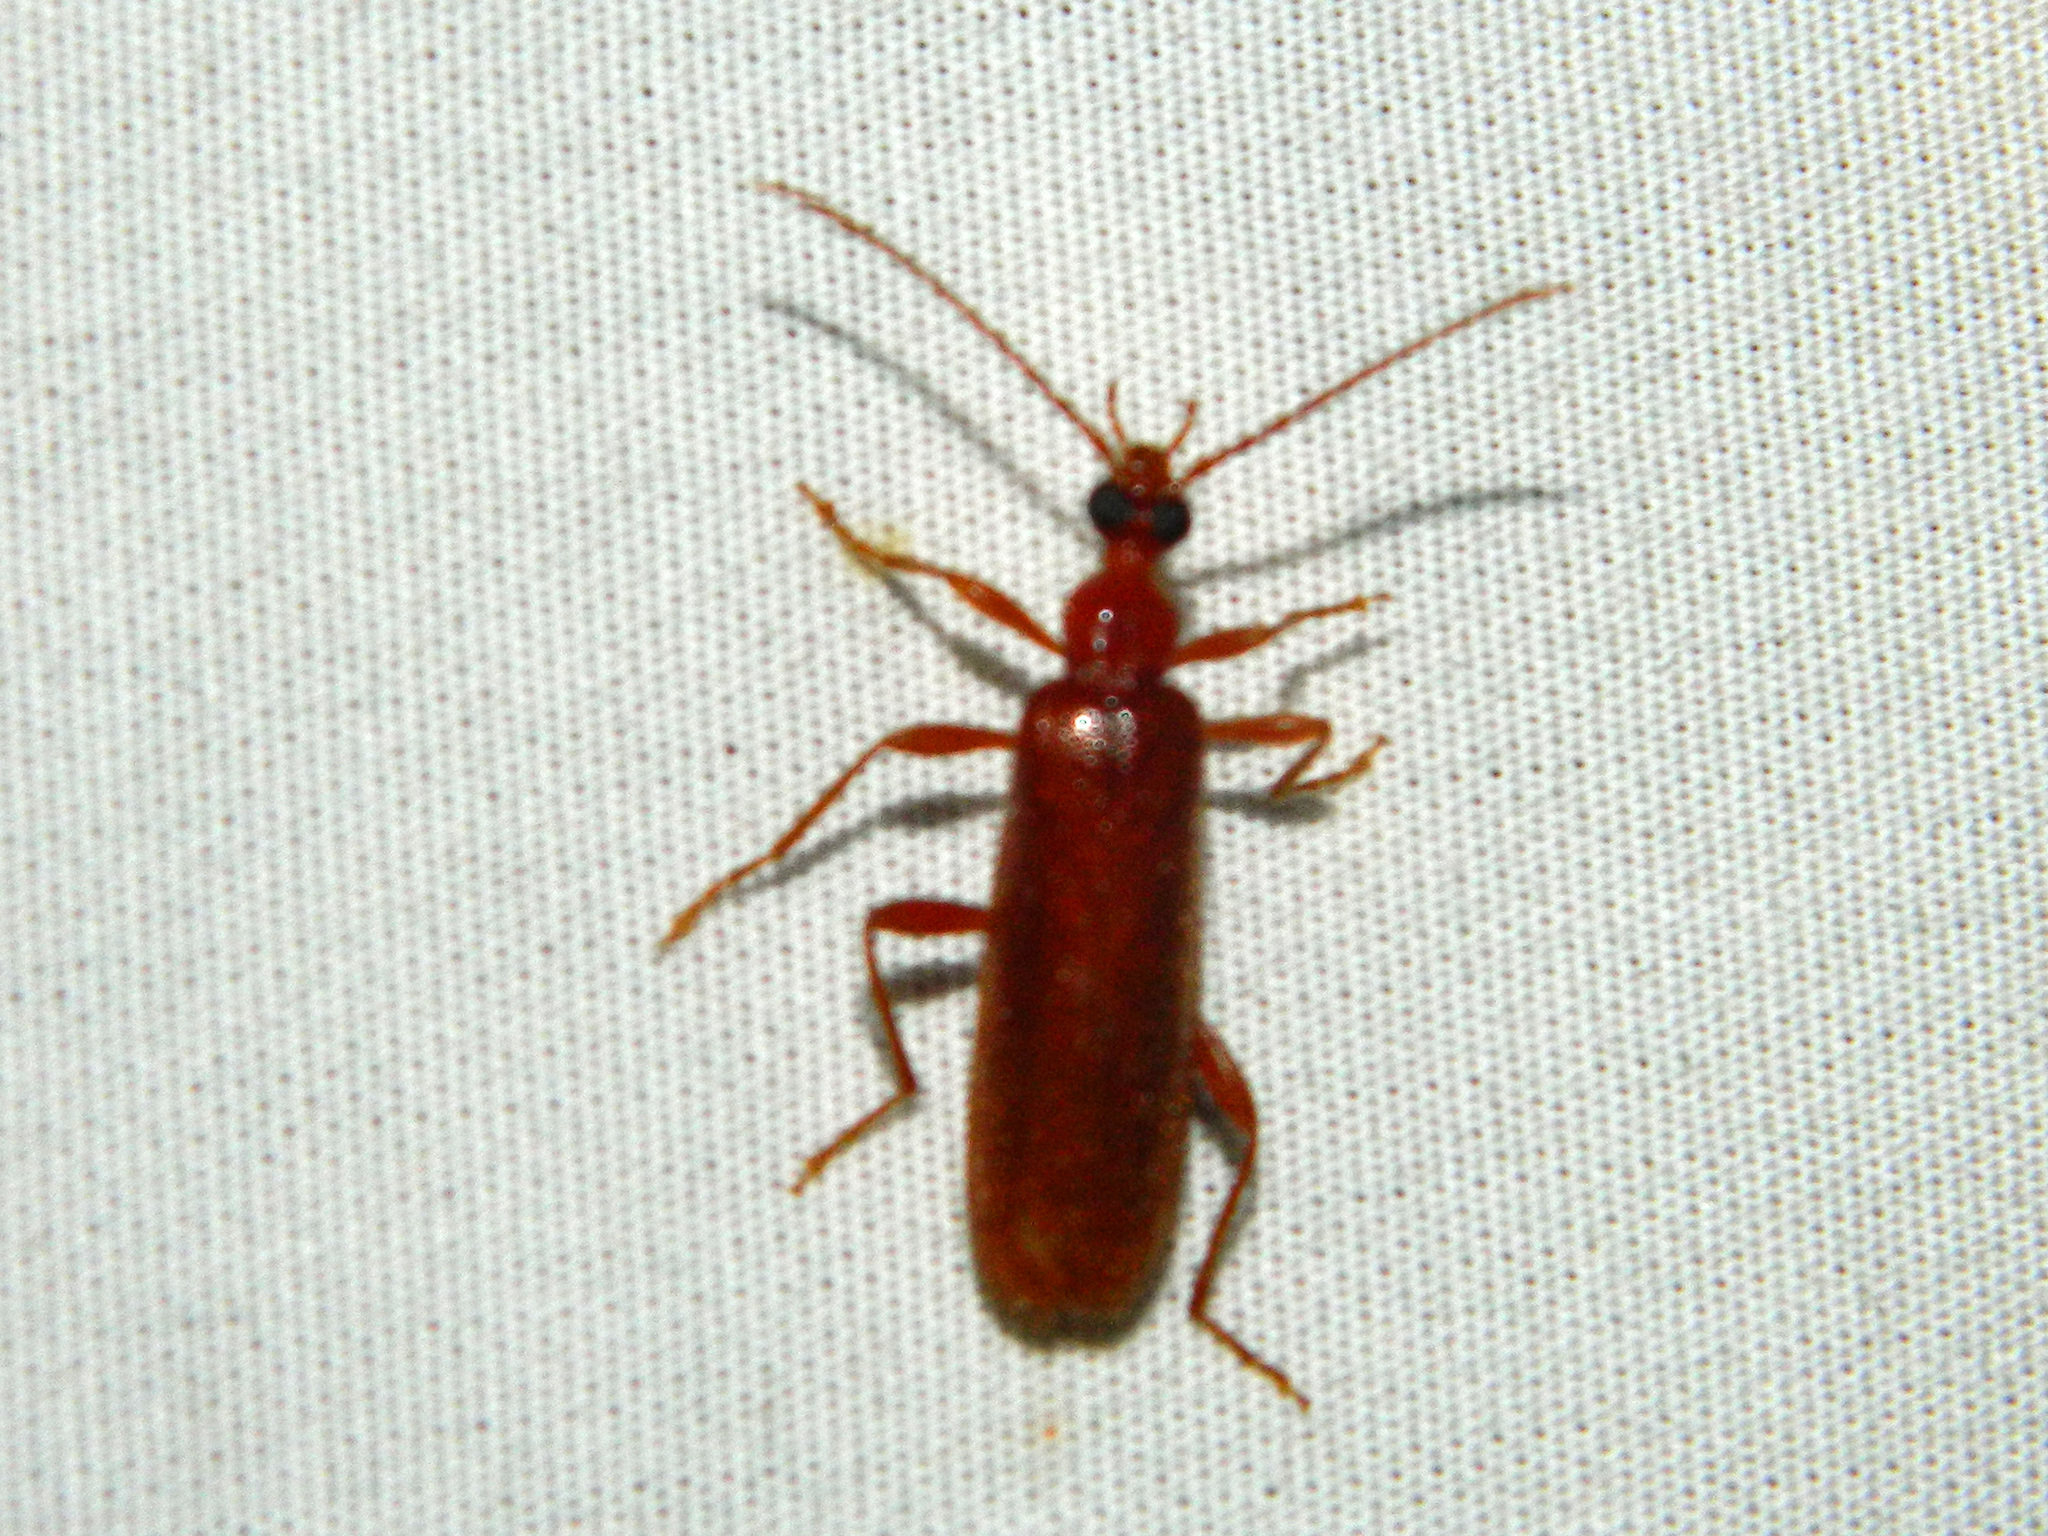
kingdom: Animalia
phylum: Arthropoda
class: Insecta
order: Coleoptera
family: Pyrochroidae
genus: Dendroides
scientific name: Dendroides concolor
